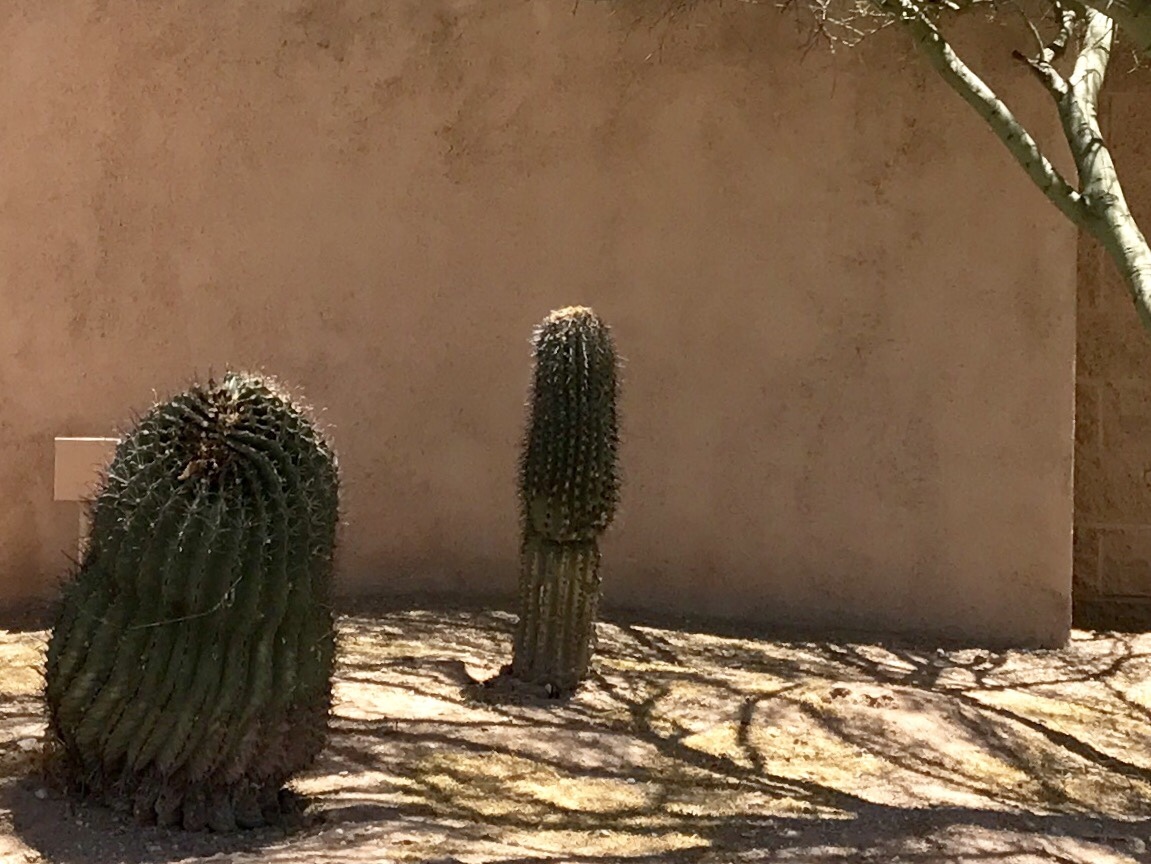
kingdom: Plantae
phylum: Tracheophyta
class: Magnoliopsida
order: Caryophyllales
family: Cactaceae
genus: Carnegiea
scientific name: Carnegiea gigantea
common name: Saguaro
